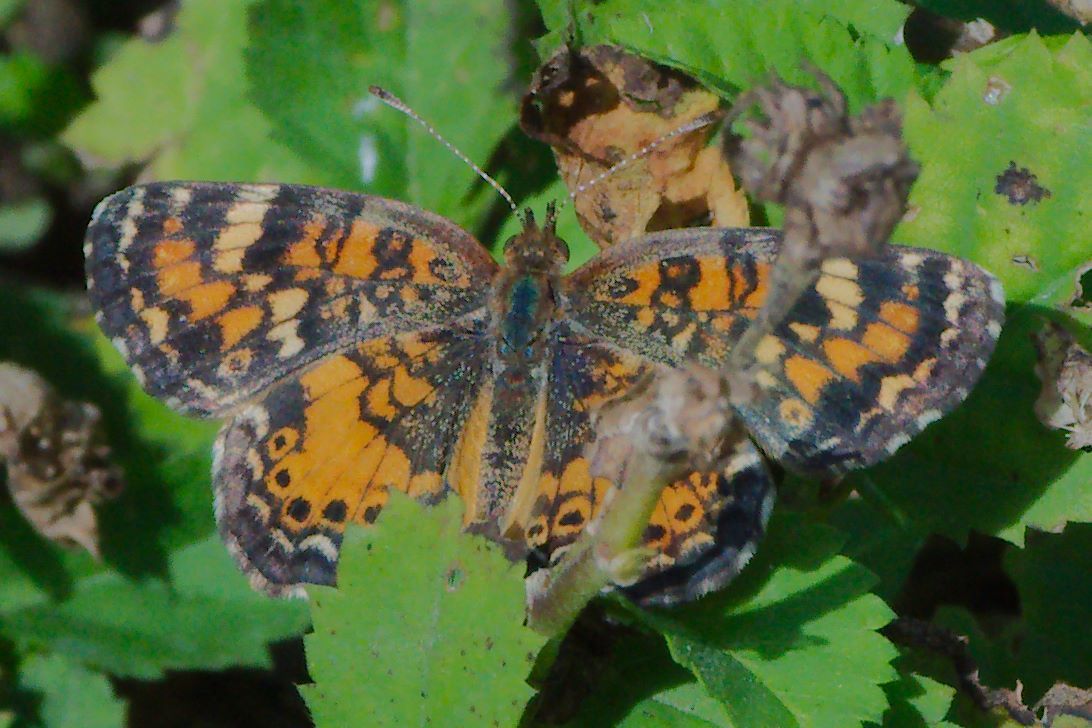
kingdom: Animalia
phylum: Arthropoda
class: Insecta
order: Lepidoptera
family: Nymphalidae
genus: Phyciodes
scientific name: Phyciodes phaon
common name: Phaon crescent
